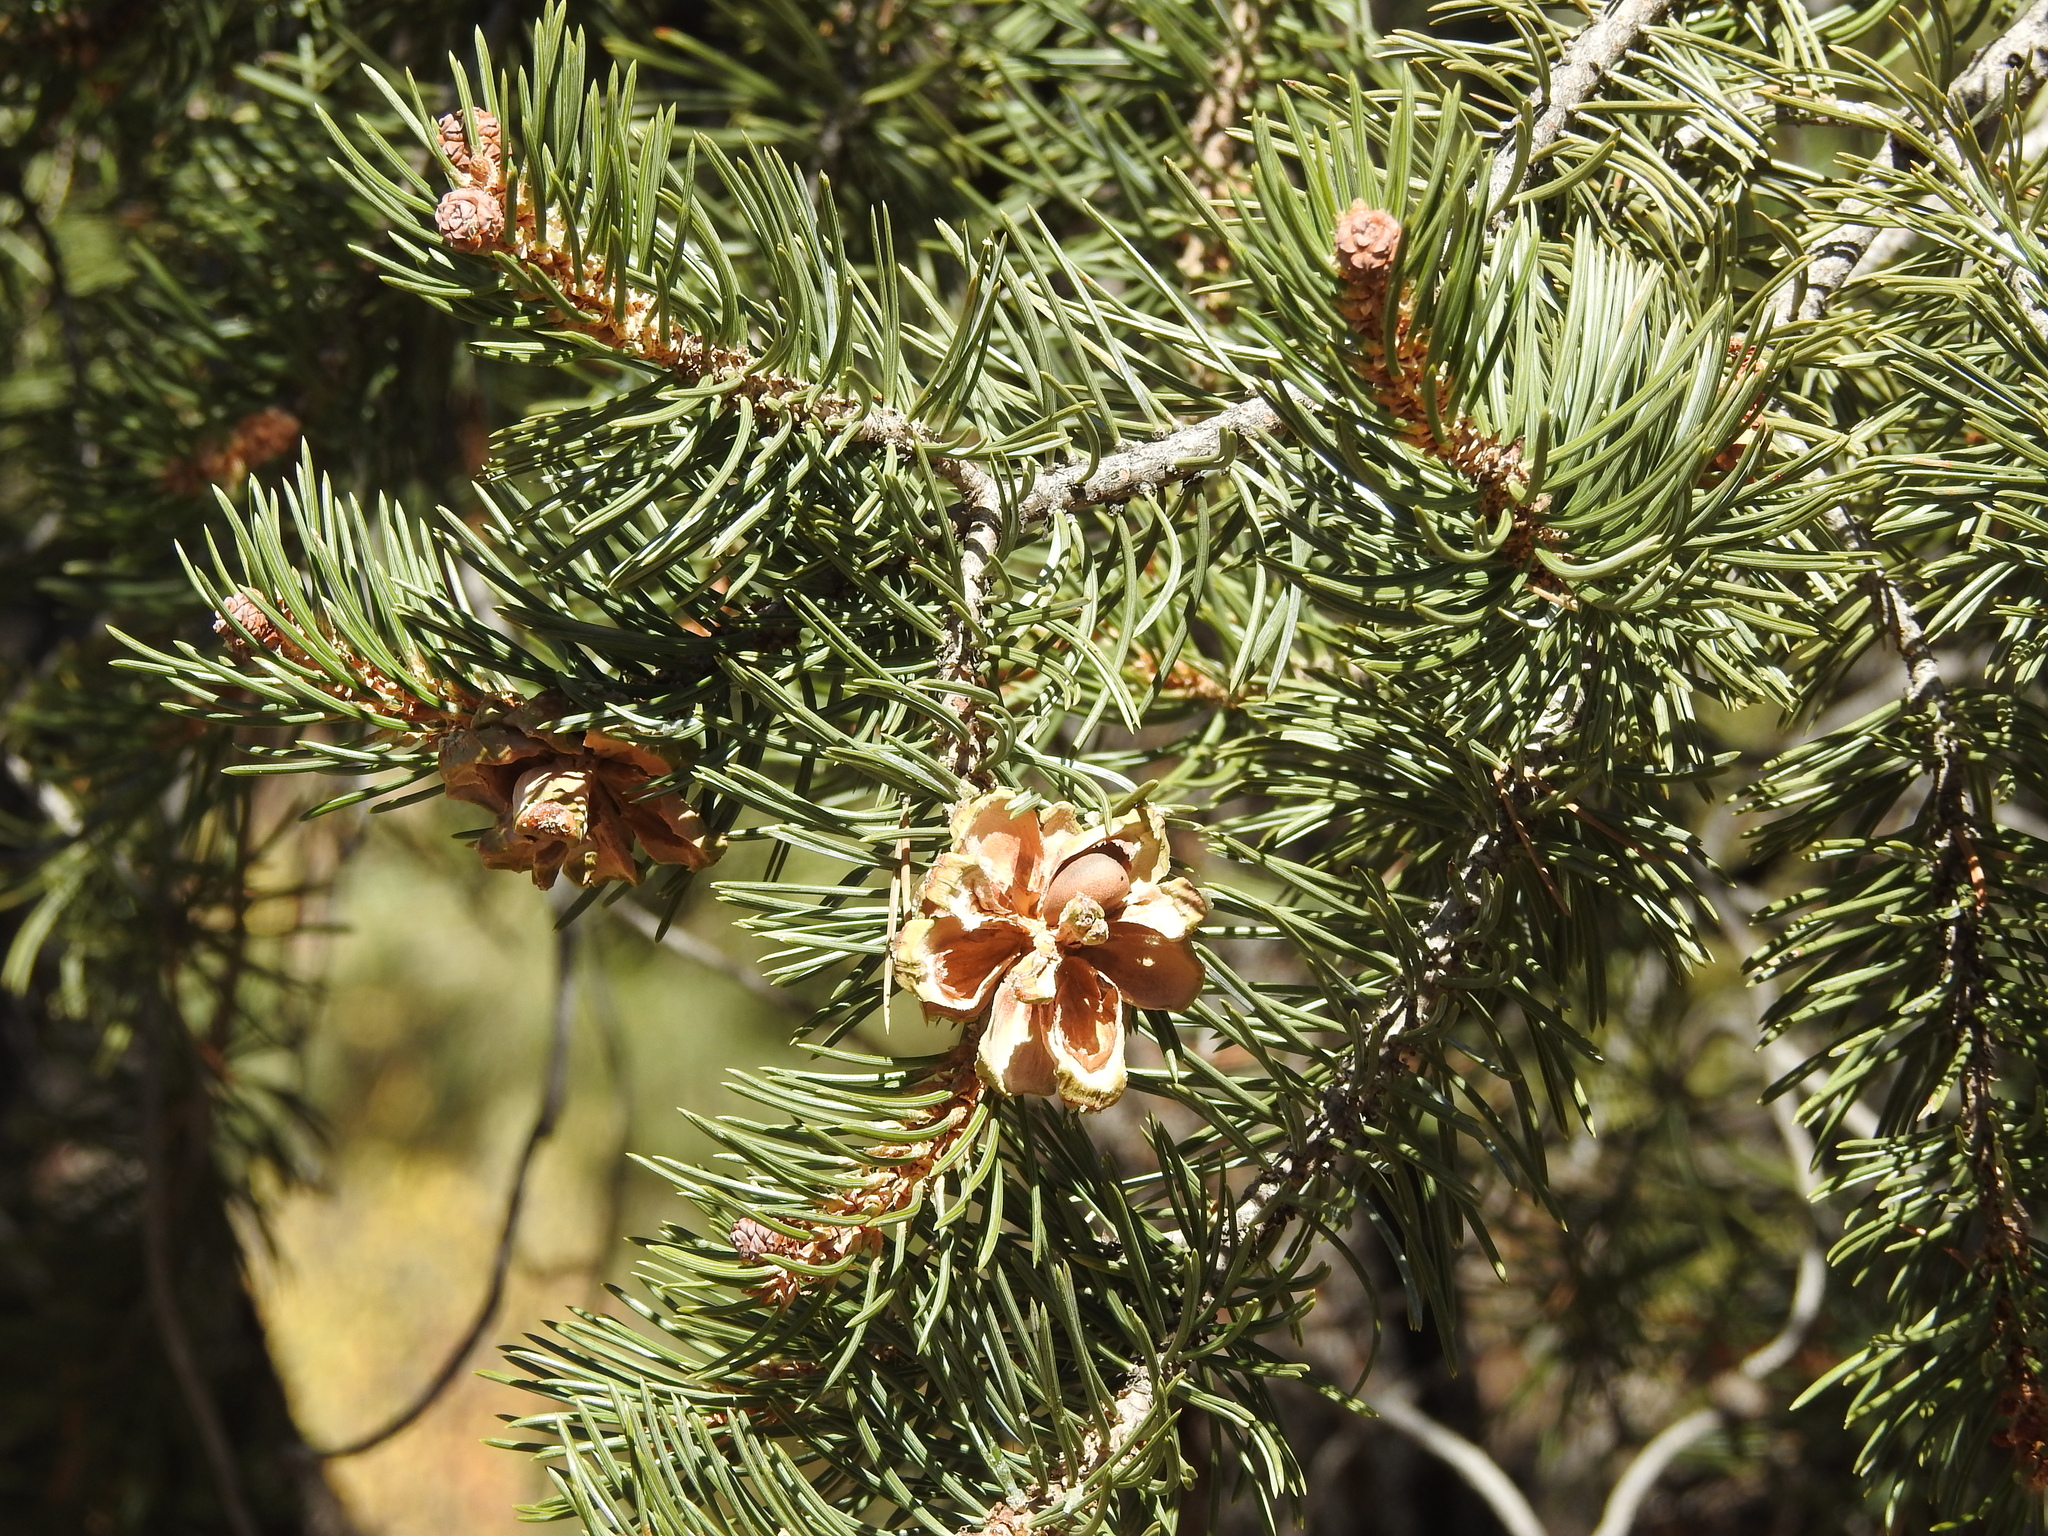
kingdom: Plantae
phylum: Tracheophyta
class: Pinopsida
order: Pinales
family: Pinaceae
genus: Pinus
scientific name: Pinus edulis
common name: Colorado pinyon
